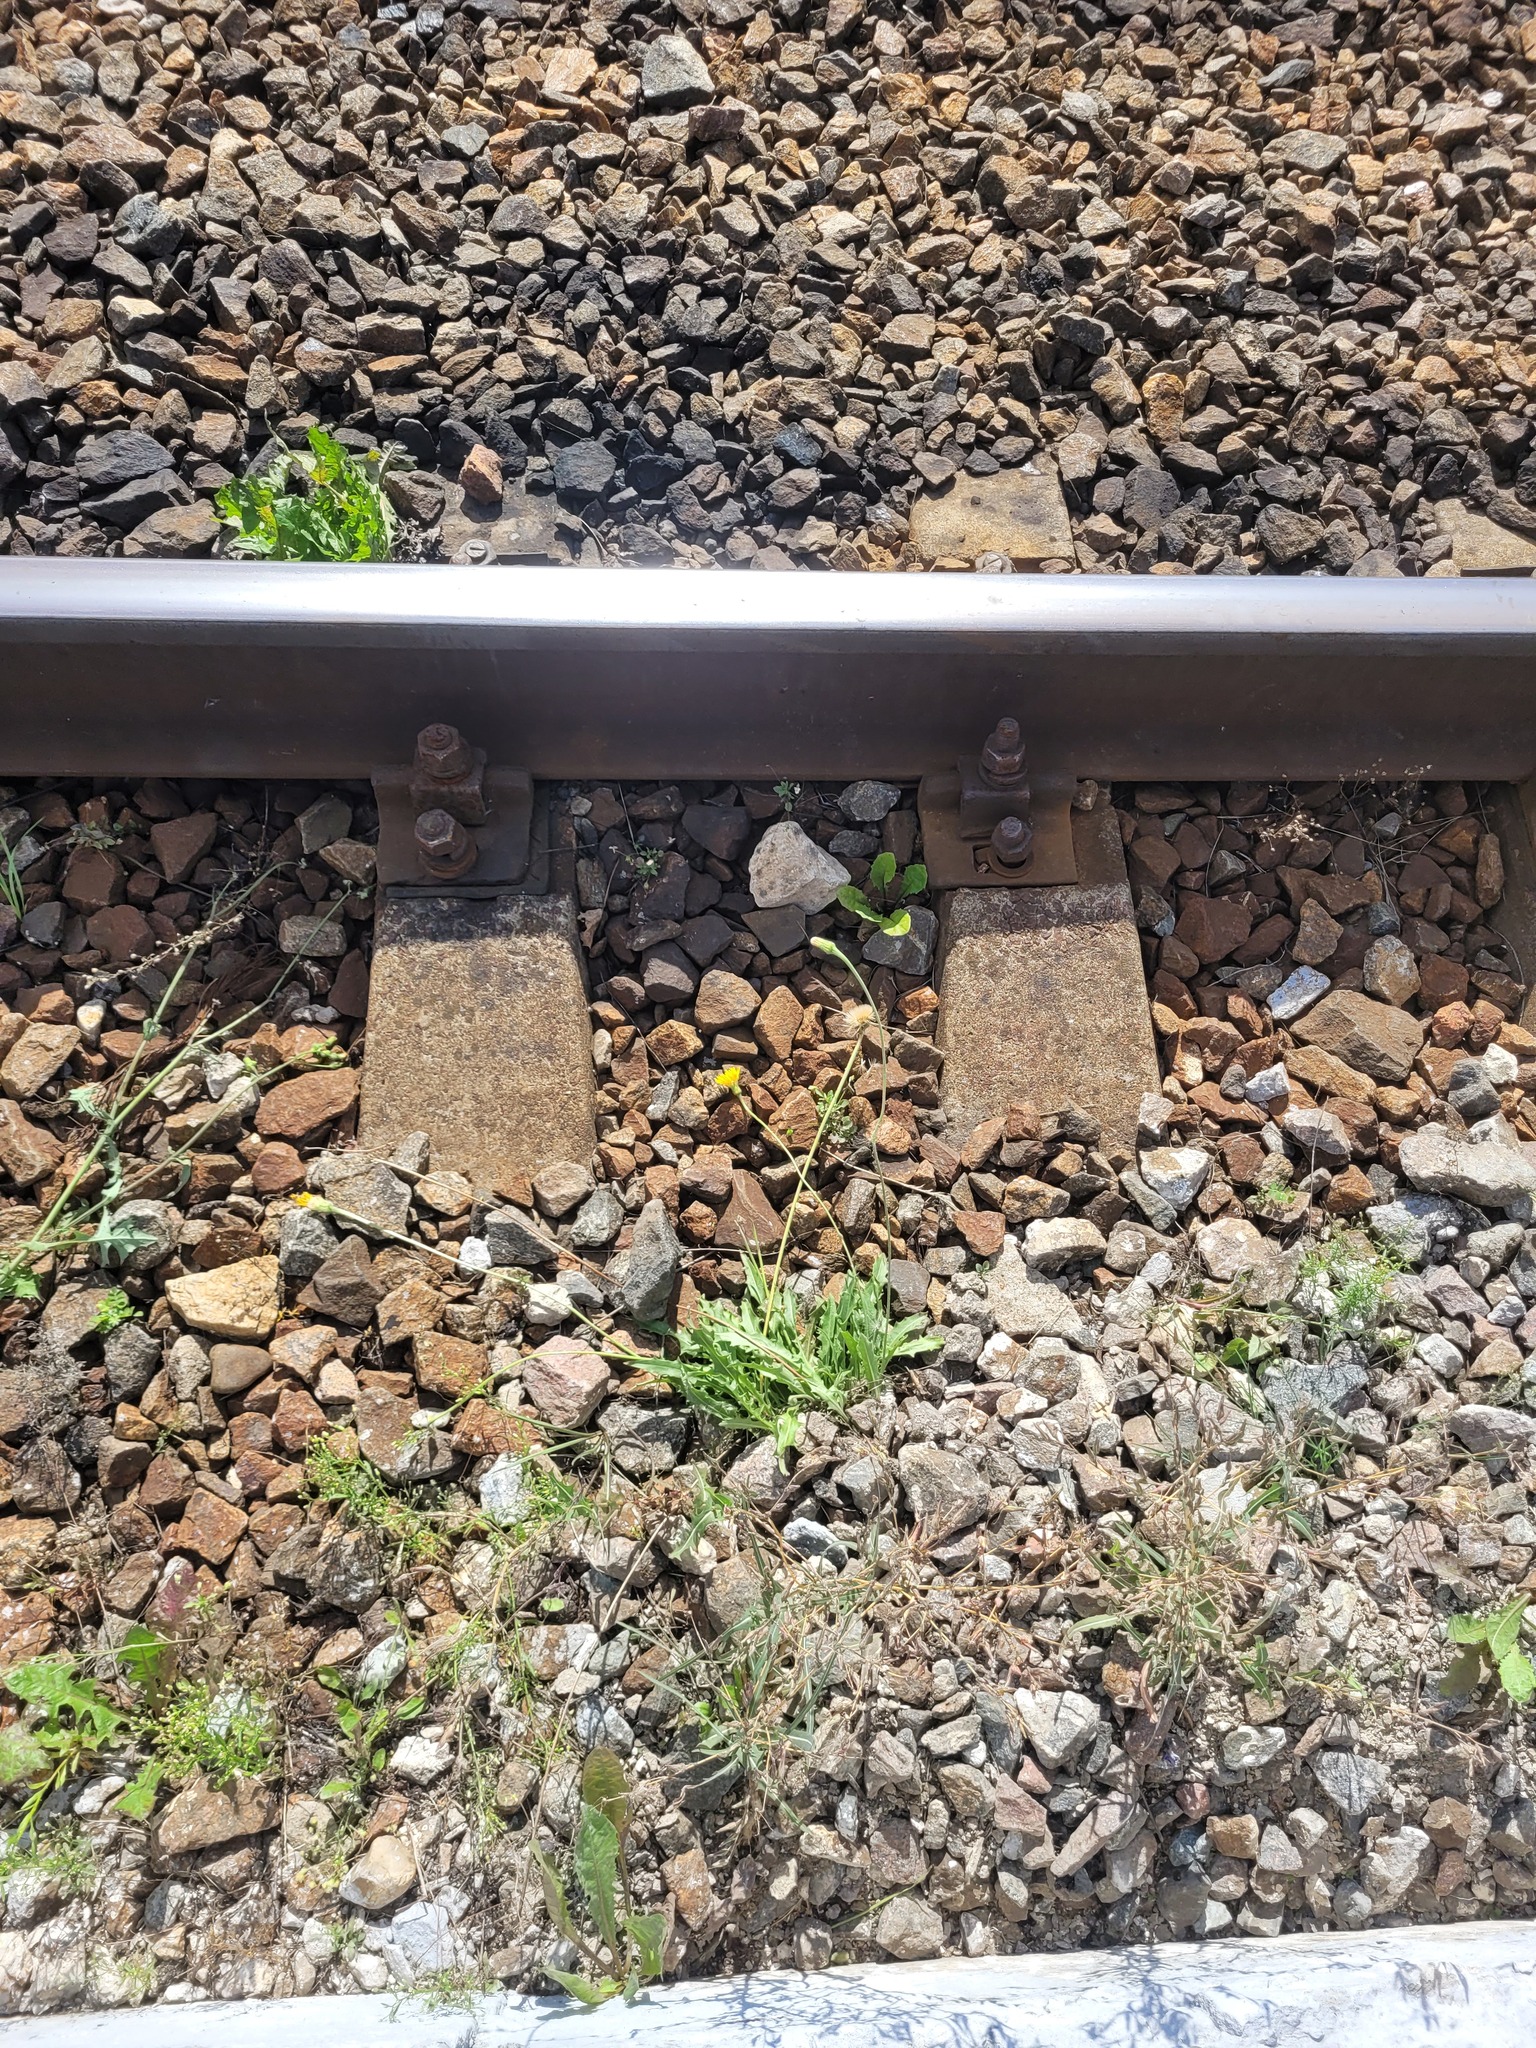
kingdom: Plantae
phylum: Tracheophyta
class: Magnoliopsida
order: Asterales
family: Asteraceae
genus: Leontodon
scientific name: Leontodon hispidus
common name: Rough hawkbit
